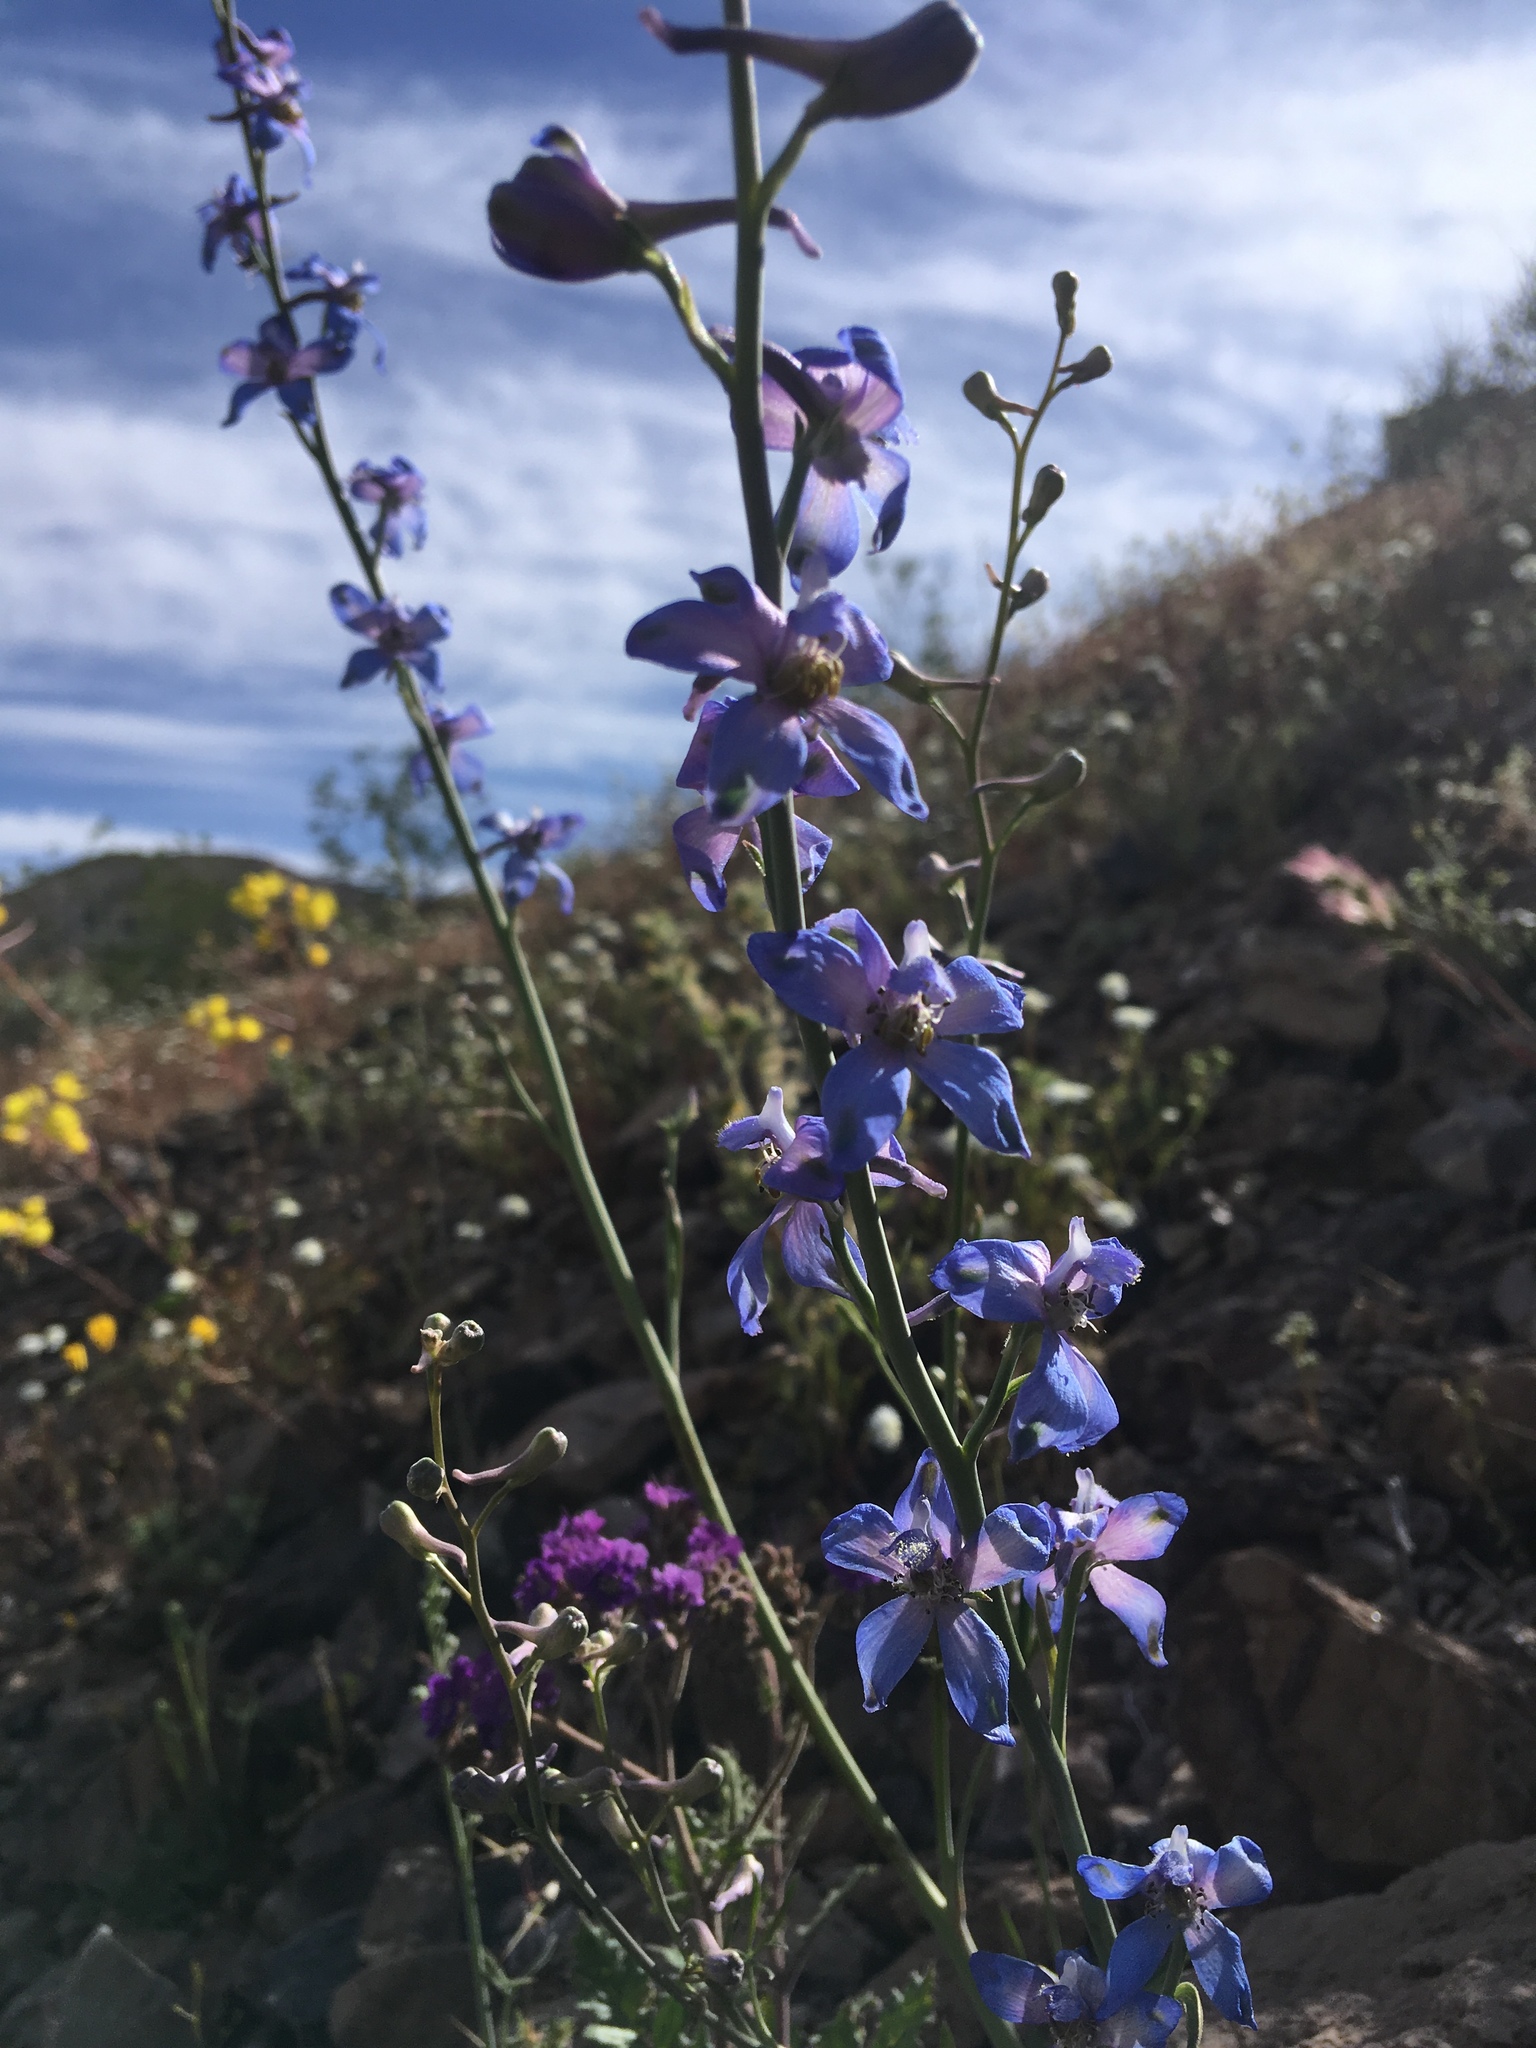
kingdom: Plantae
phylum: Tracheophyta
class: Magnoliopsida
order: Ranunculales
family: Ranunculaceae
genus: Delphinium
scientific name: Delphinium parishii
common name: Apache larkspur
